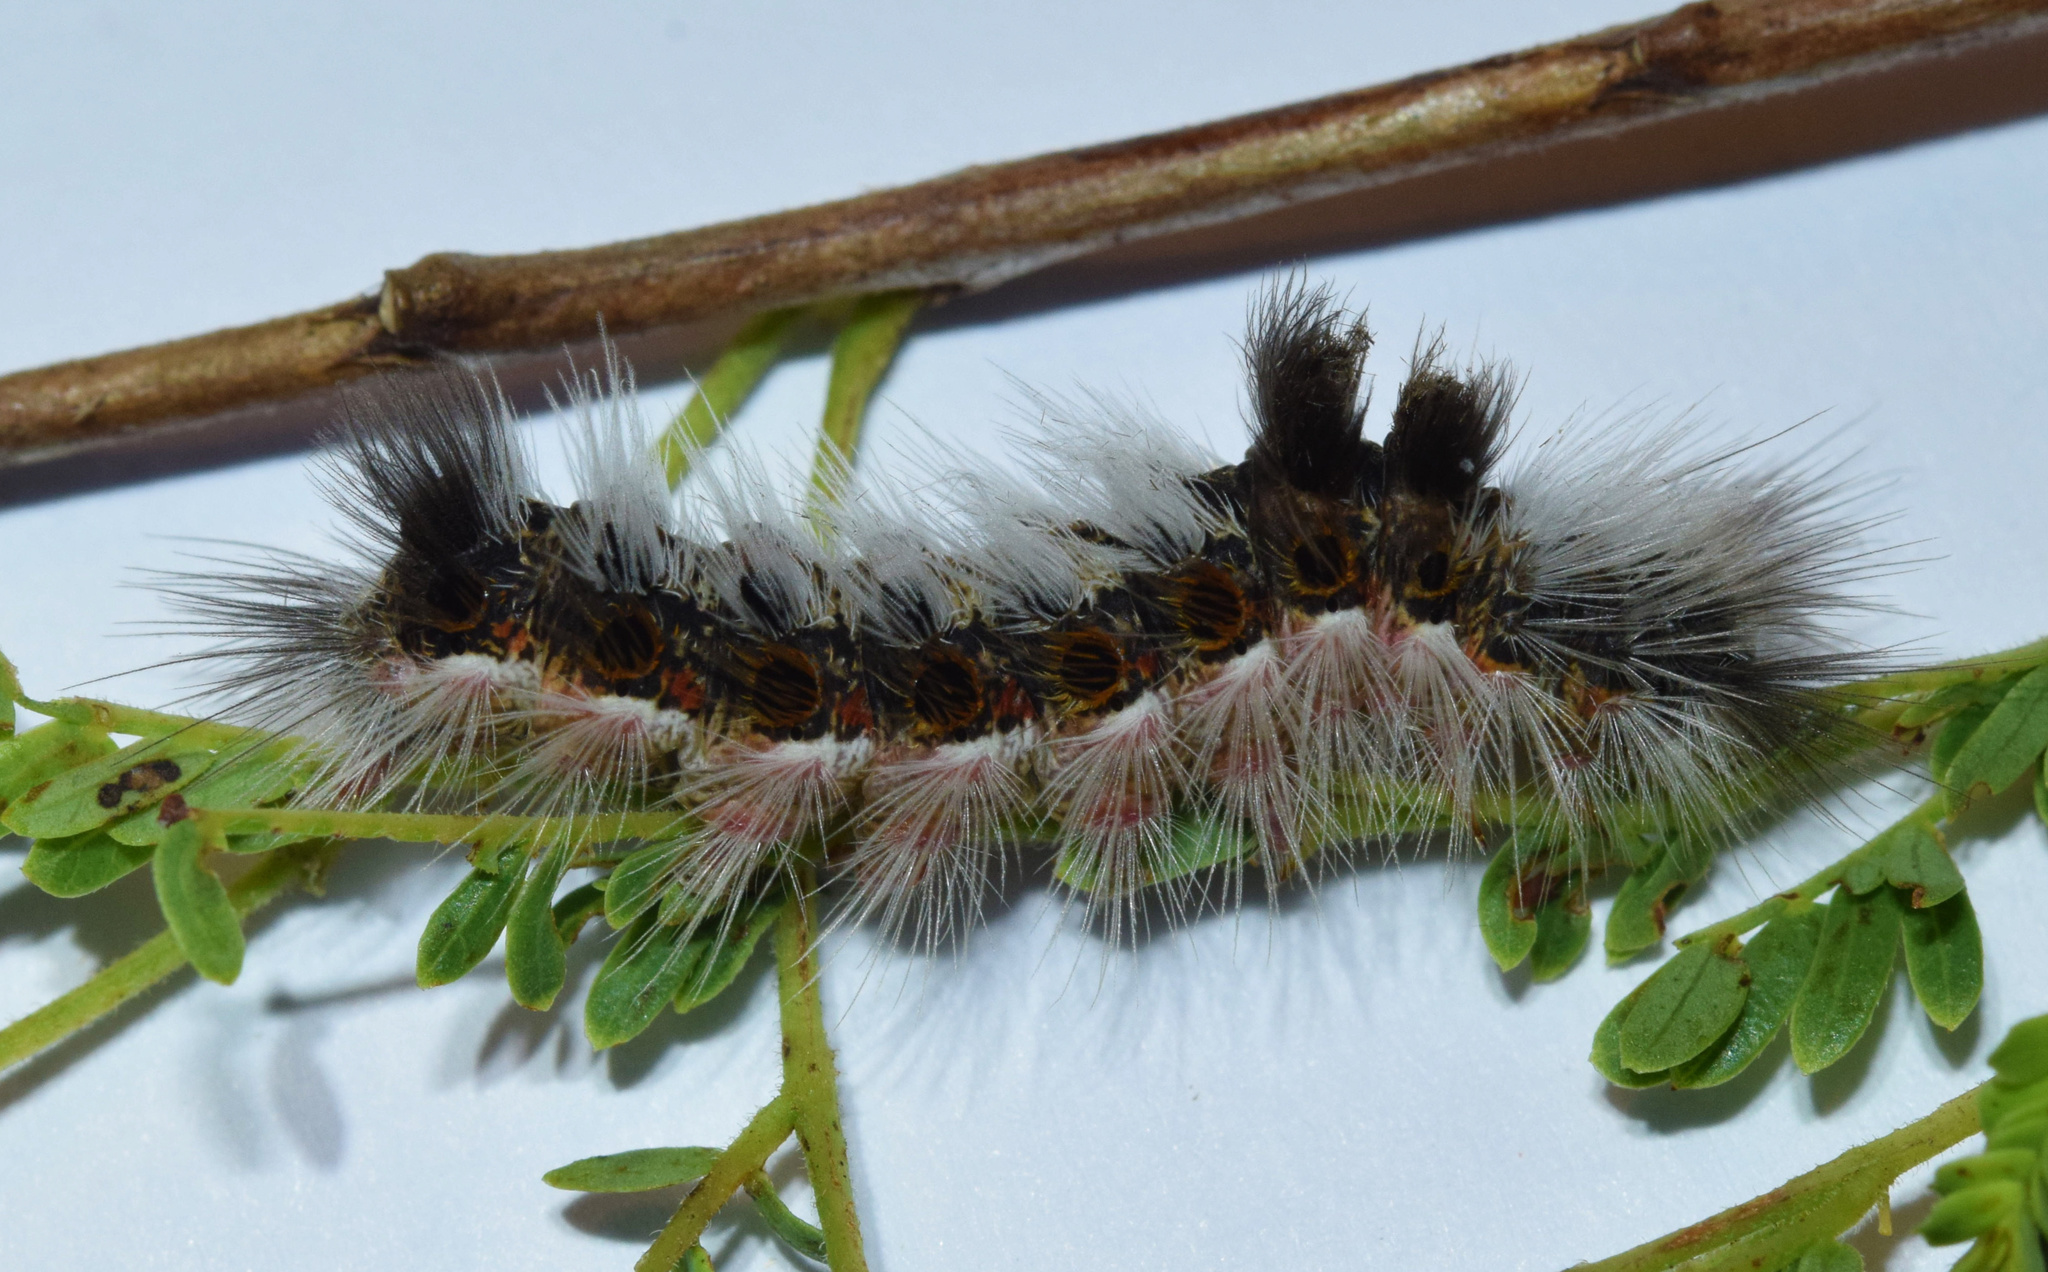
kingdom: Animalia
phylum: Arthropoda
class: Insecta
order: Lepidoptera
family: Erebidae
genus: Euproctis
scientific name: Euproctis Knappetra fasciata
